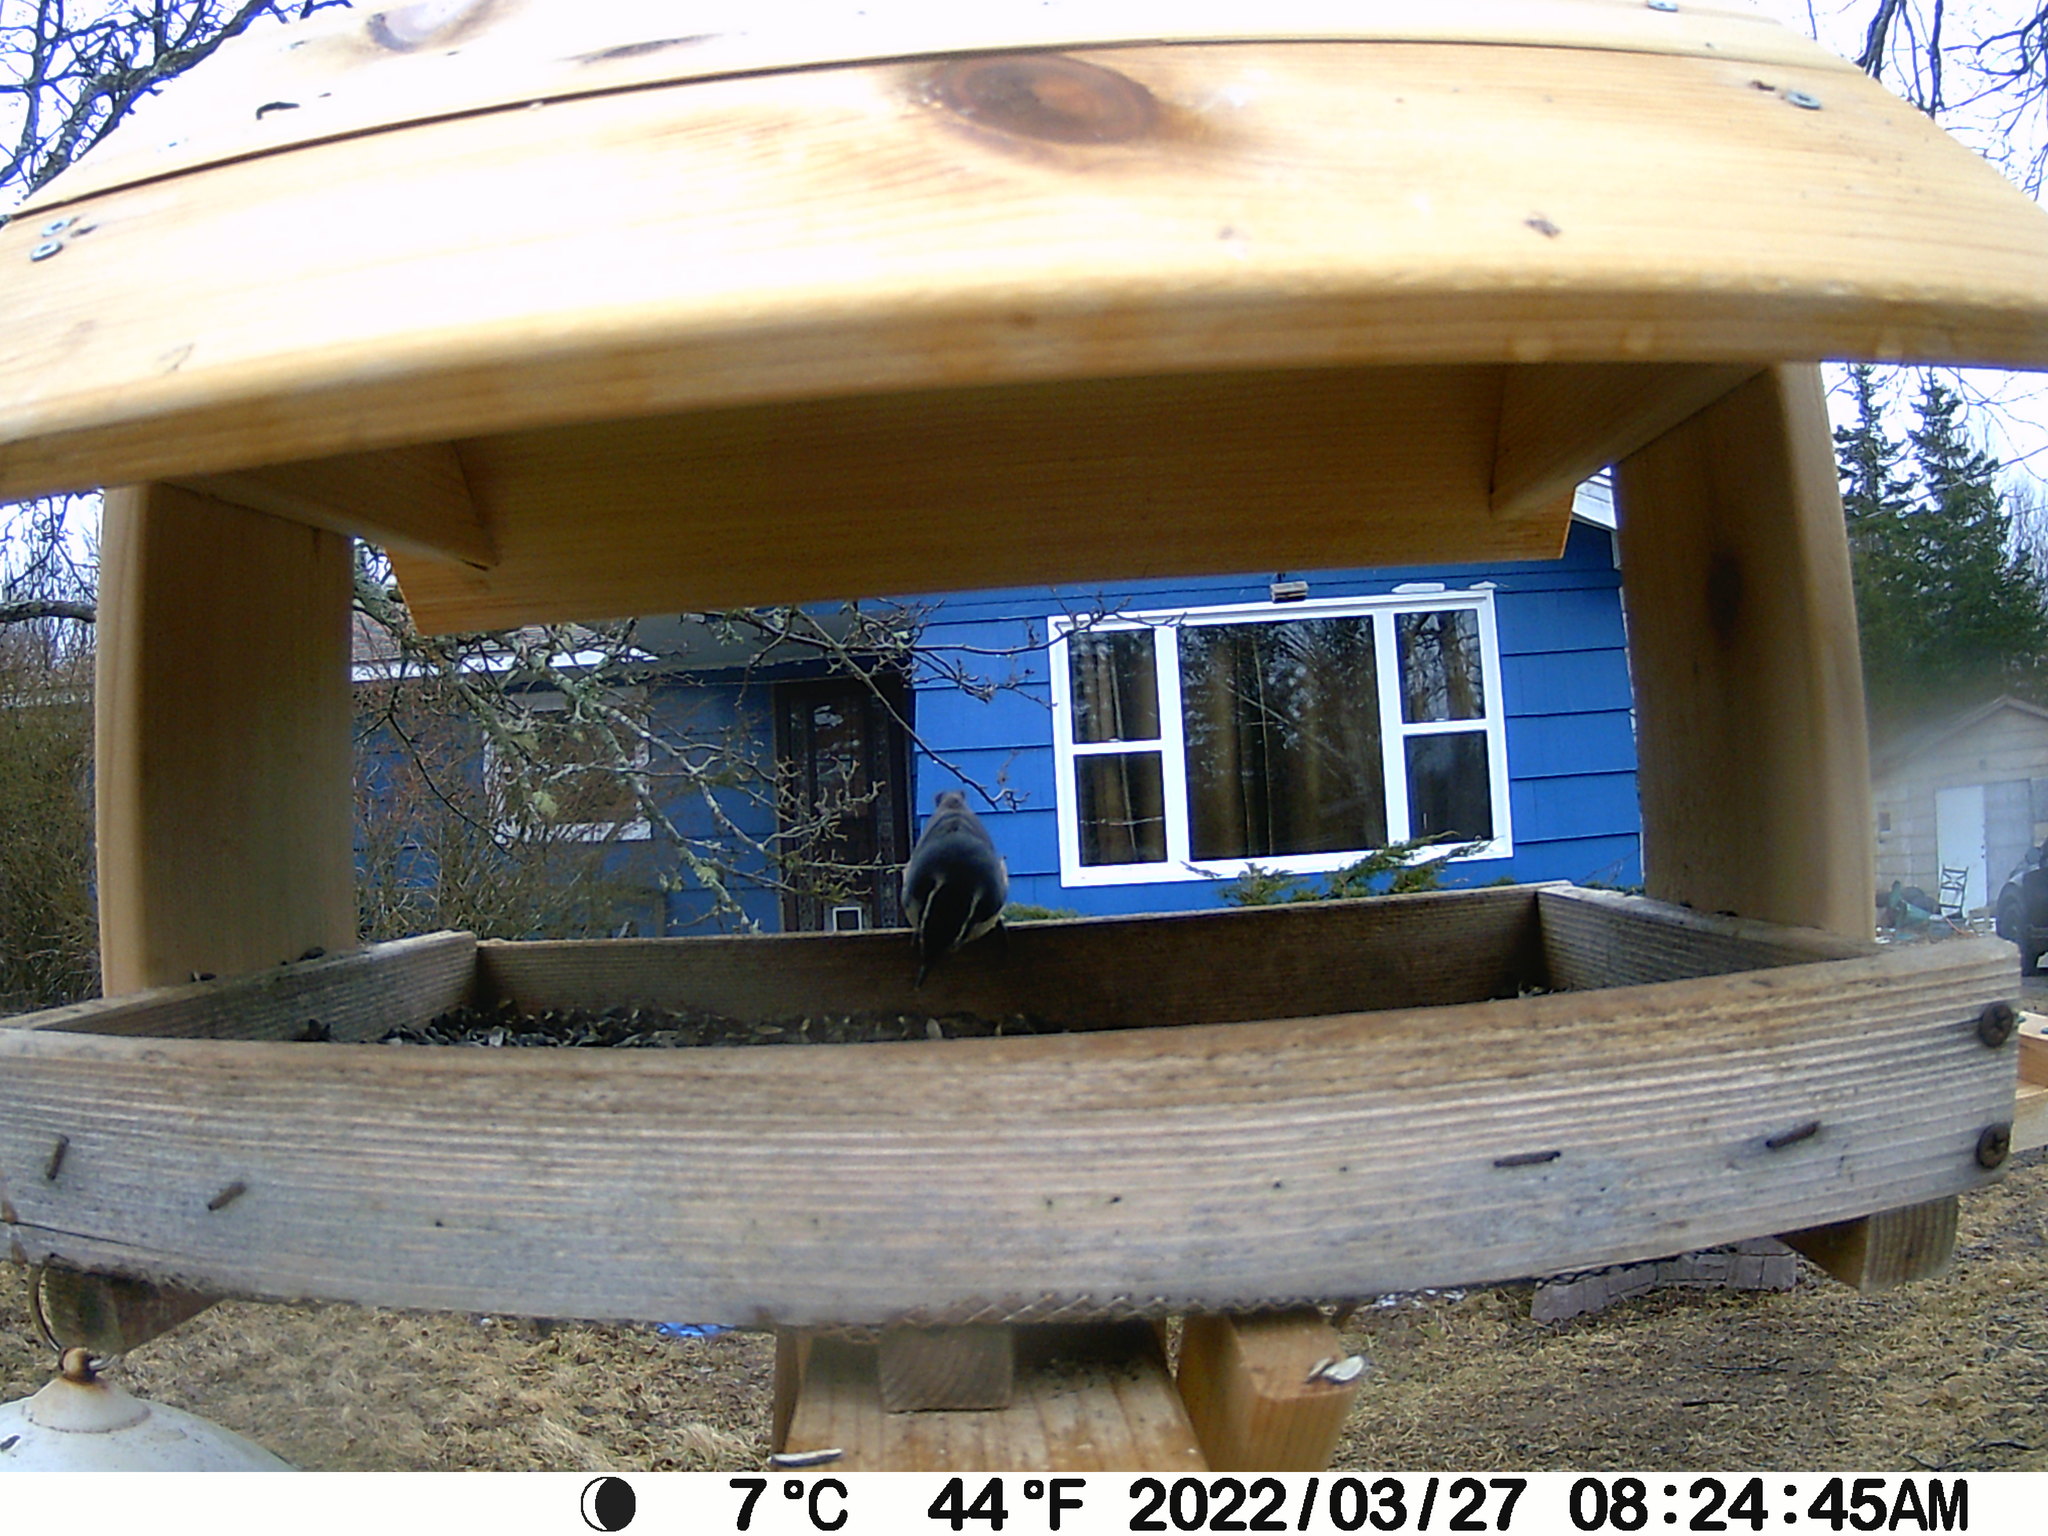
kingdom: Animalia
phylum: Chordata
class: Aves
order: Passeriformes
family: Sittidae
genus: Sitta
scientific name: Sitta canadensis
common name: Red-breasted nuthatch
